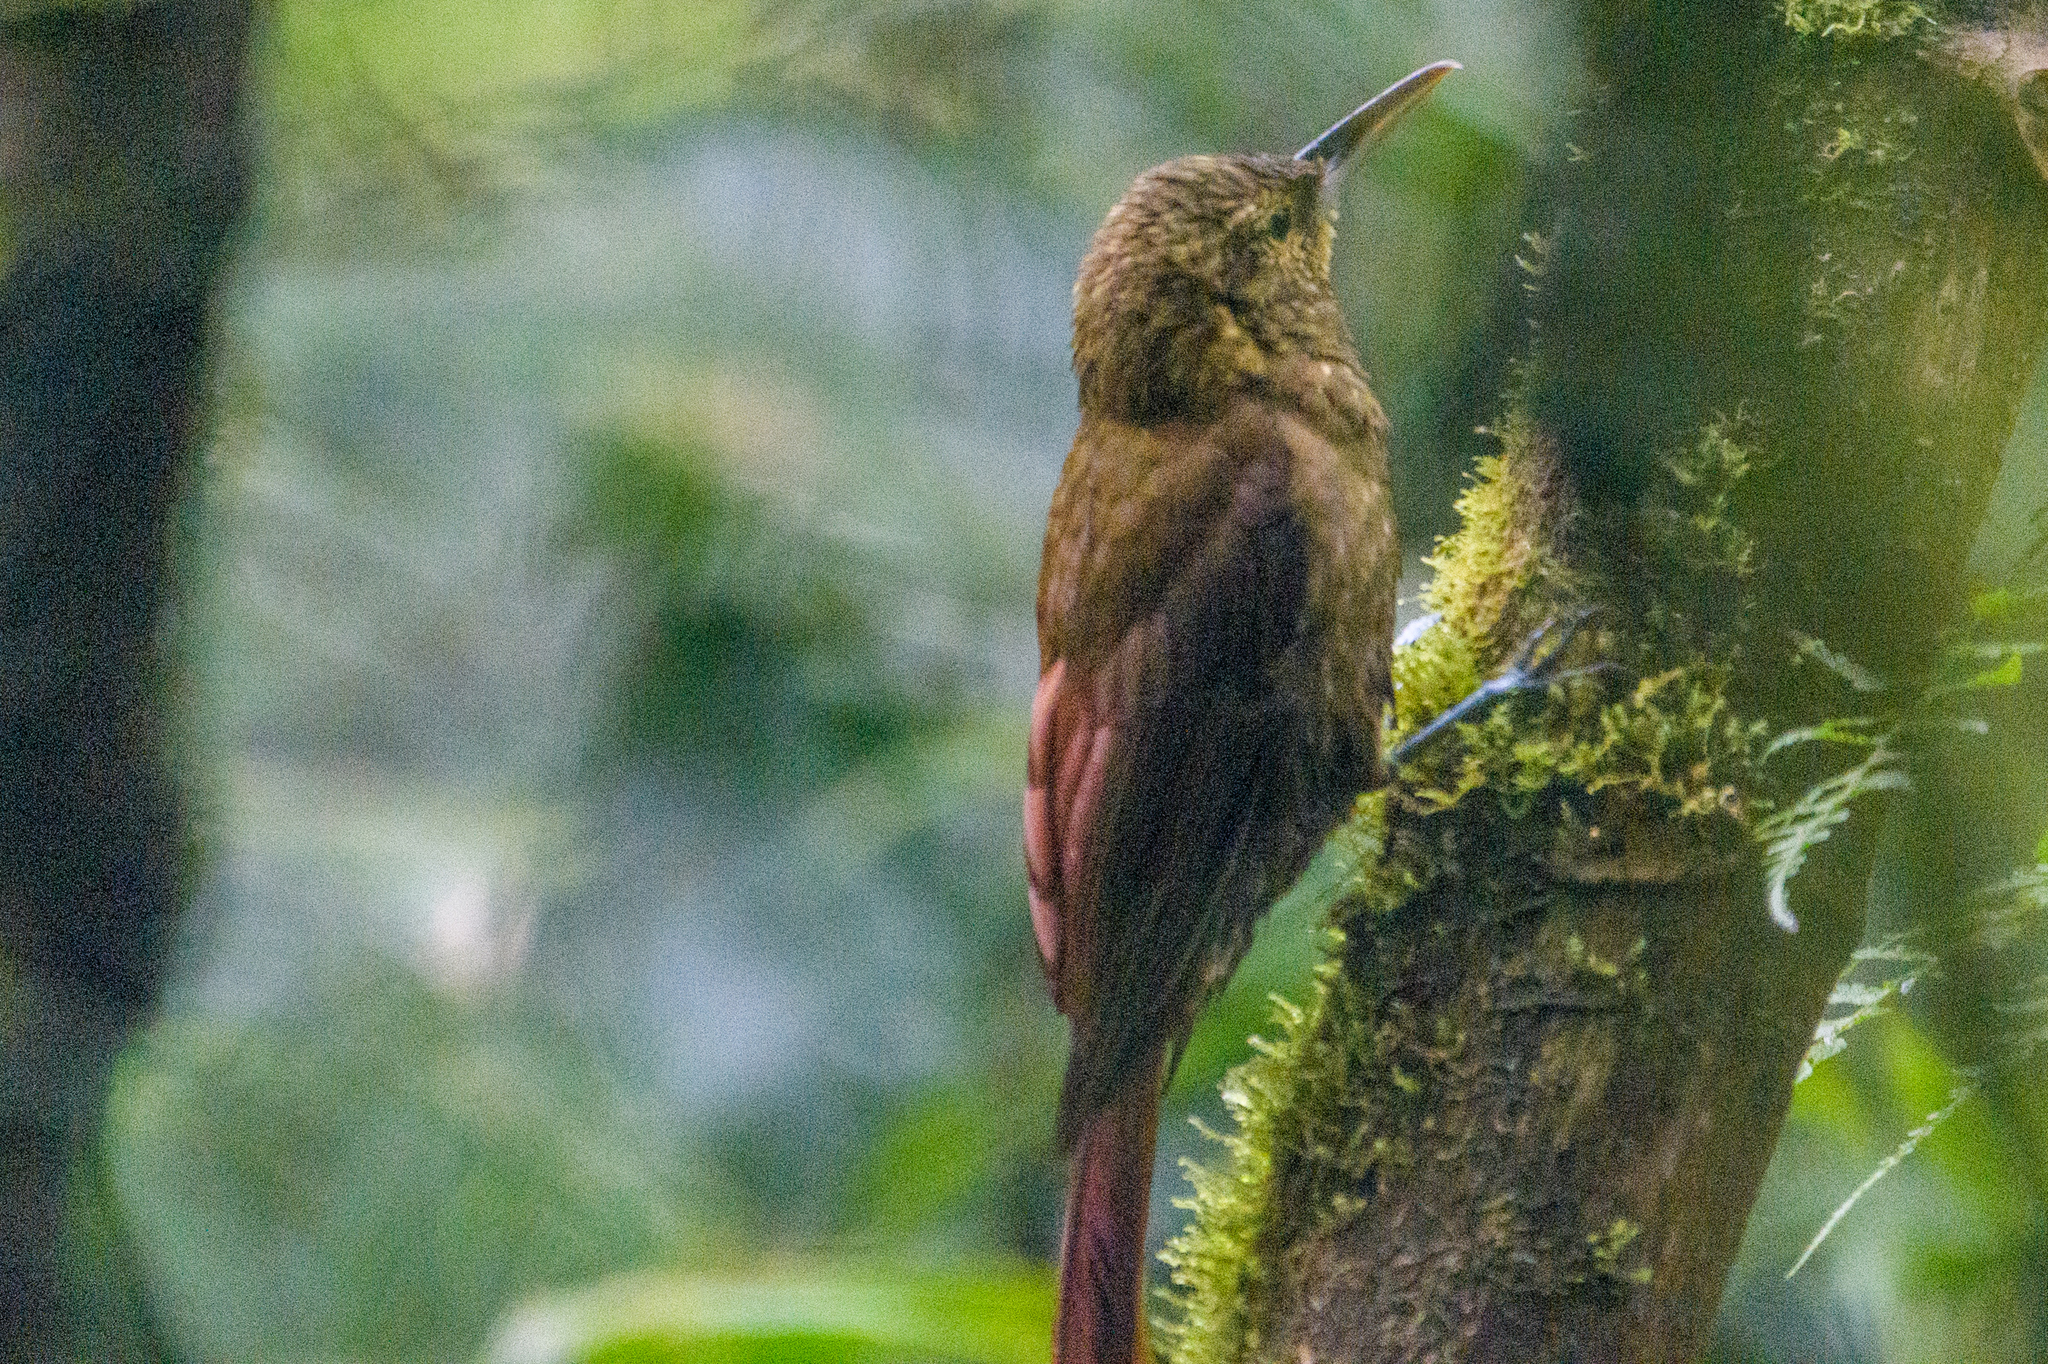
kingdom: Animalia
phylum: Chordata
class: Aves
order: Passeriformes
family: Furnariidae
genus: Xiphorhynchus
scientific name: Xiphorhynchus erythropygius
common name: Spotted woodcreeper
